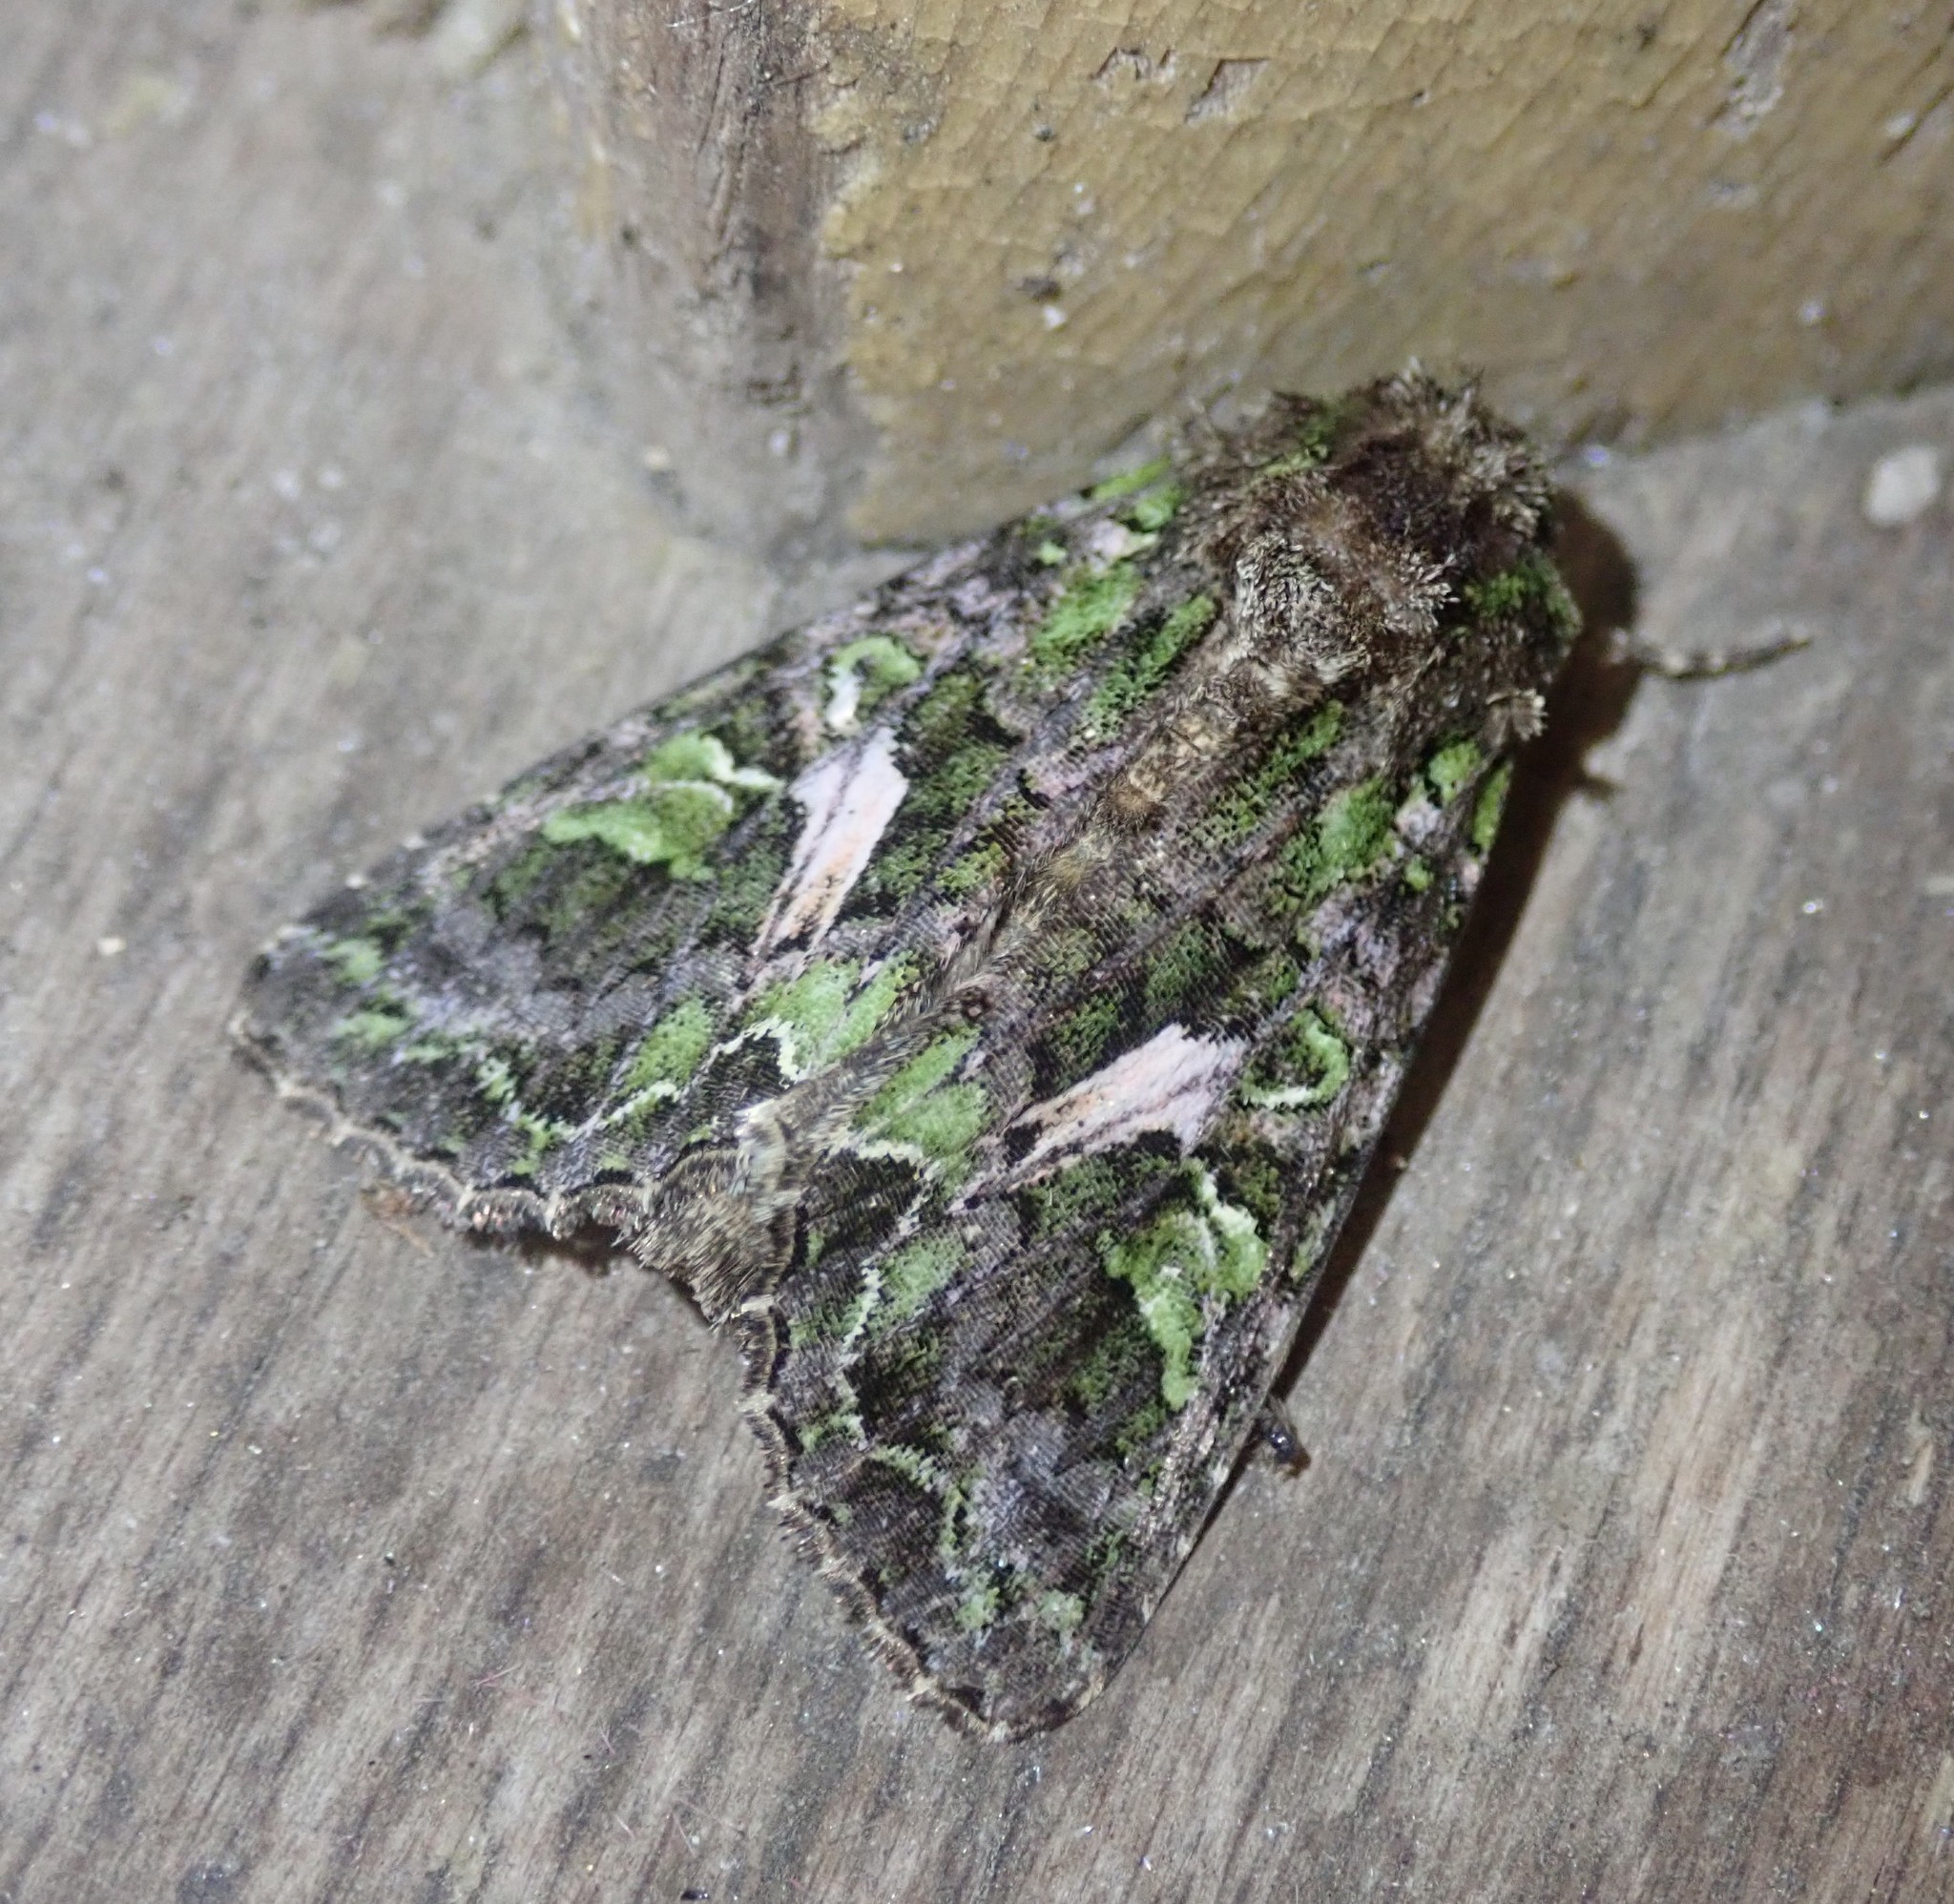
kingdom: Animalia
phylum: Arthropoda
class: Insecta
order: Lepidoptera
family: Noctuidae
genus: Trachea
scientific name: Trachea atriplicis
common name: Orache moth
